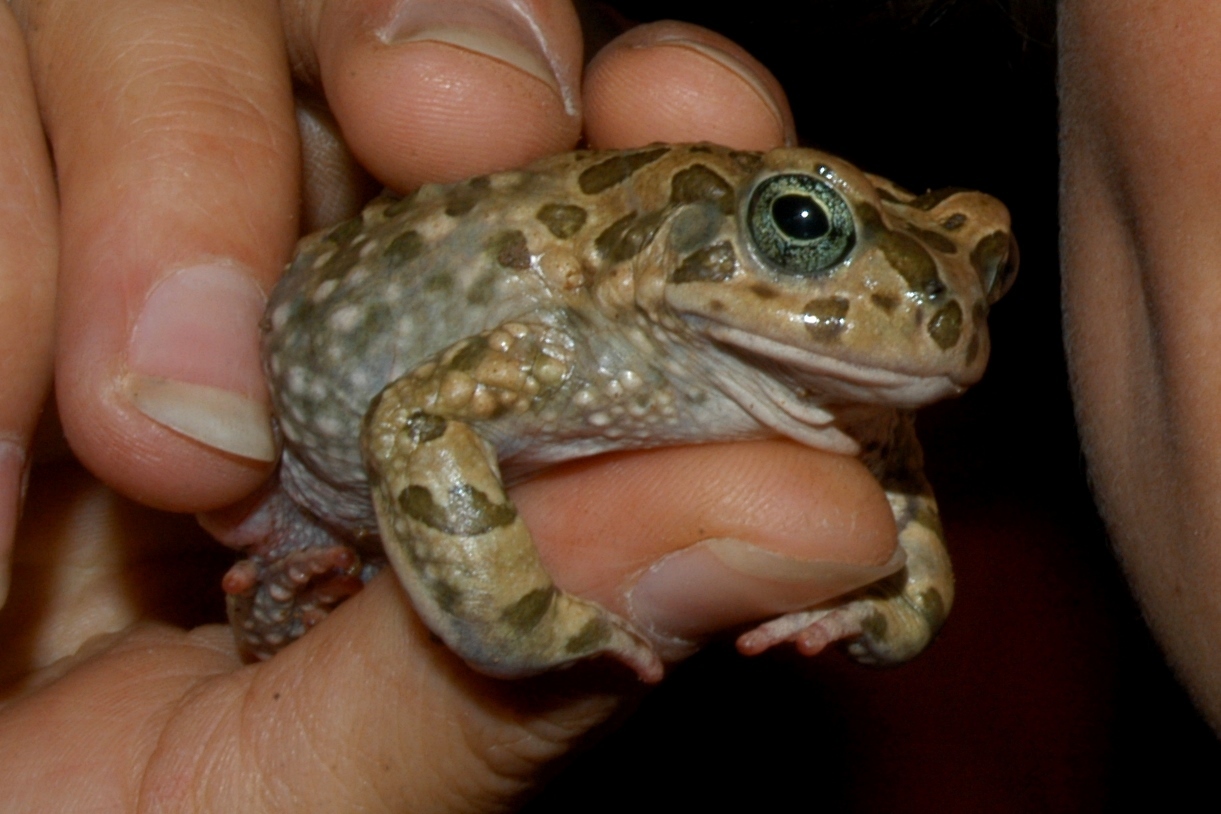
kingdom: Animalia
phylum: Chordata
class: Amphibia
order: Anura
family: Bufonidae
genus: Vandijkophrynus
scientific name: Vandijkophrynus gariepensis
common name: Gariep toad
